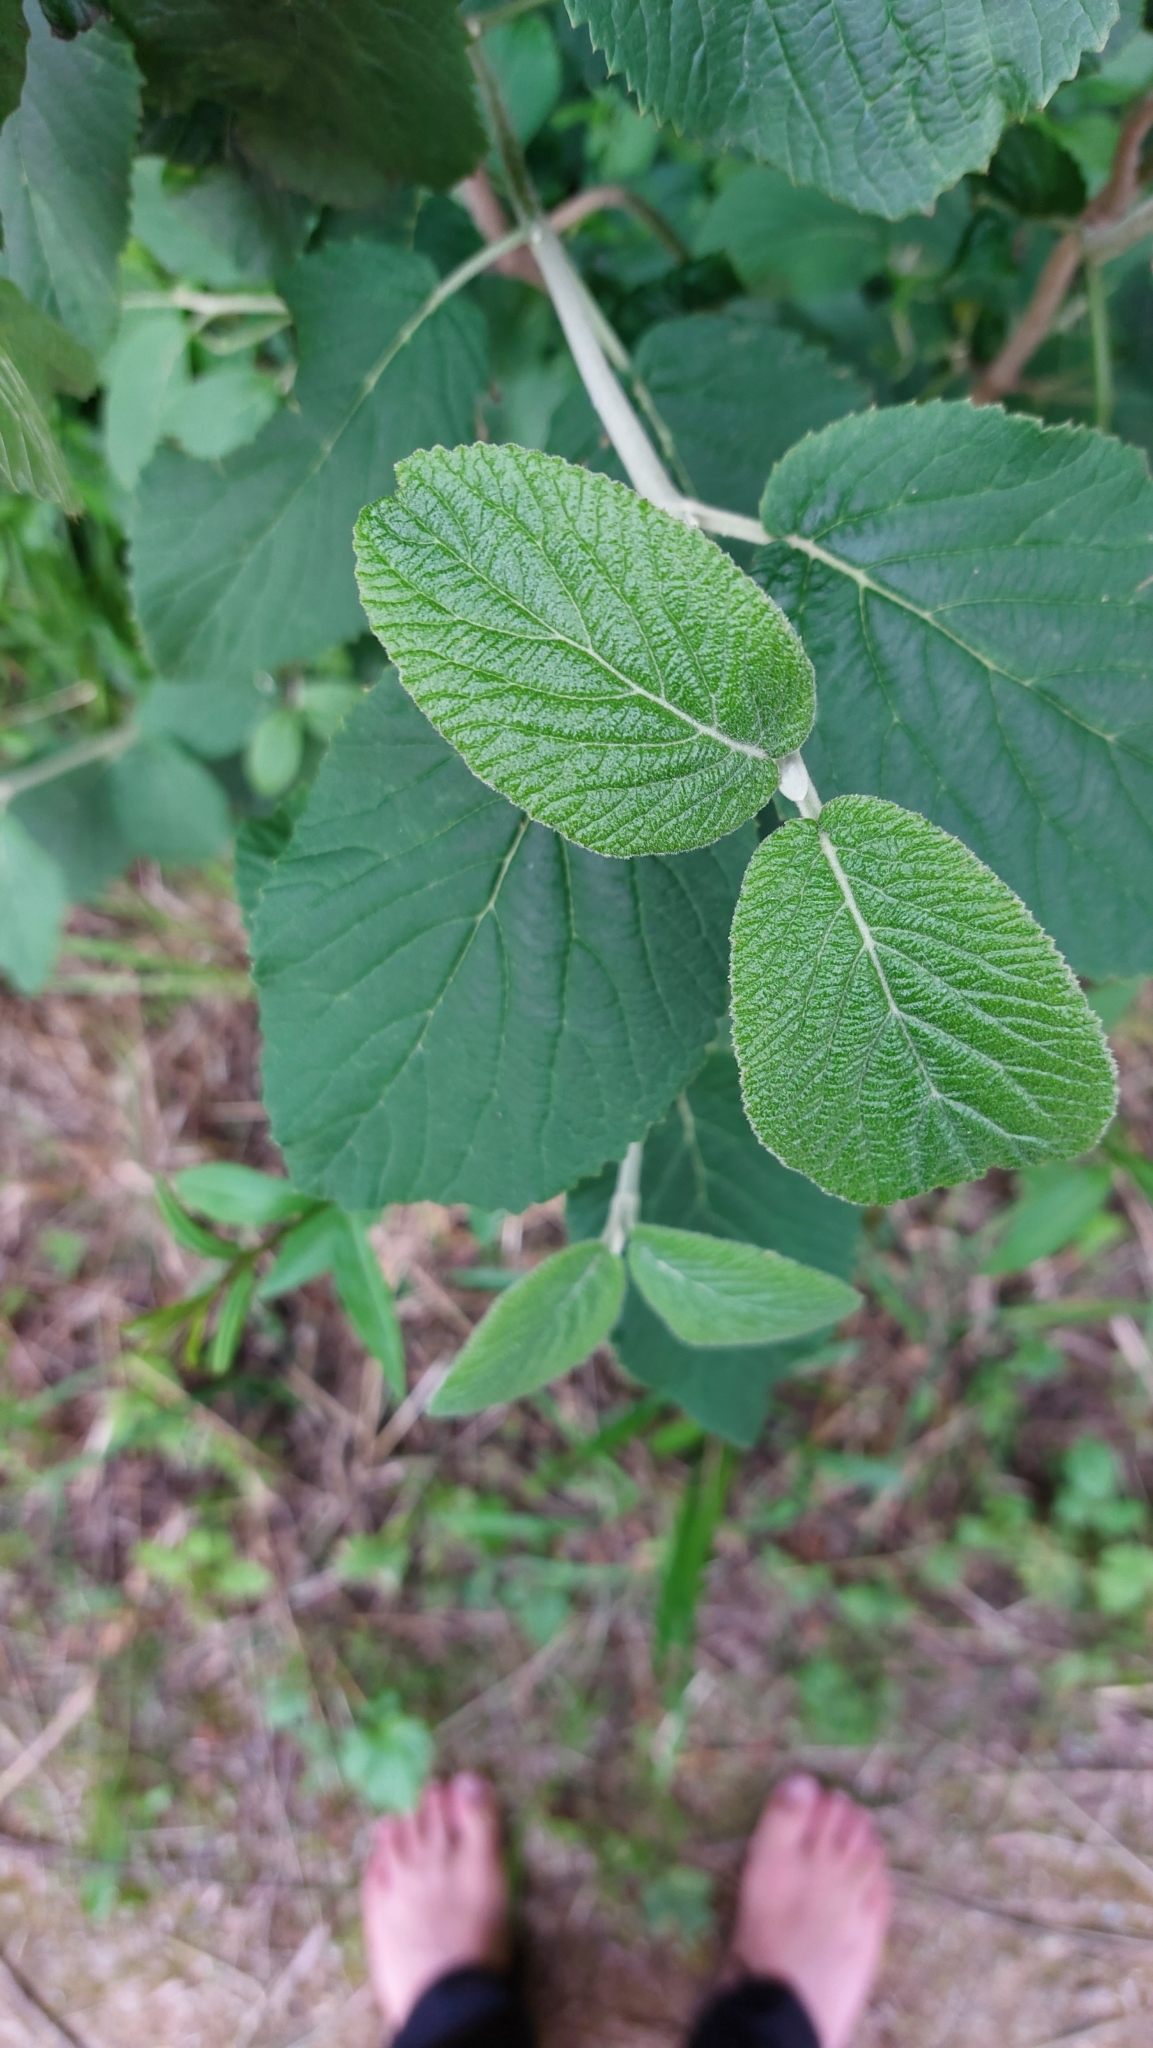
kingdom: Plantae
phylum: Tracheophyta
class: Magnoliopsida
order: Dipsacales
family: Viburnaceae
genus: Viburnum
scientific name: Viburnum lantana
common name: Wayfaring tree
